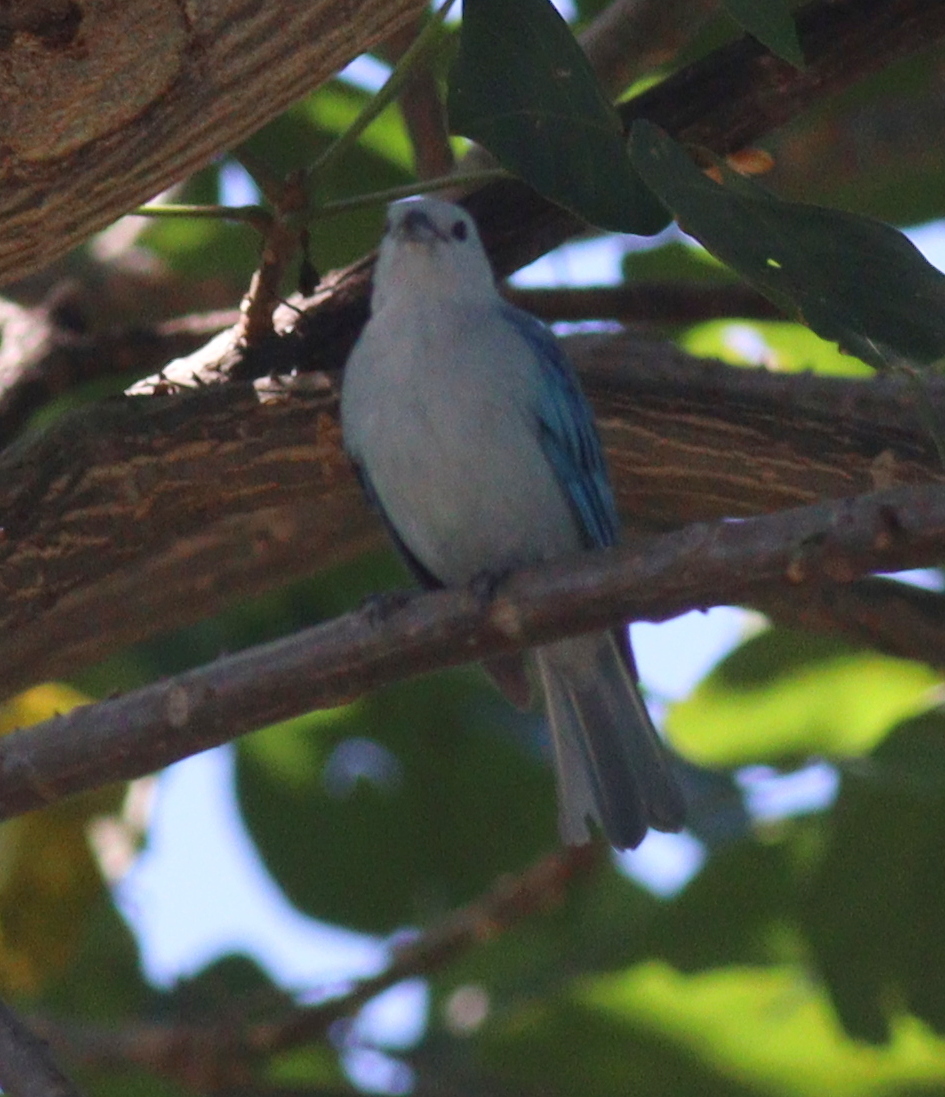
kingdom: Animalia
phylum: Chordata
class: Aves
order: Passeriformes
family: Thraupidae
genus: Thraupis
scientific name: Thraupis episcopus
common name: Blue-grey tanager
